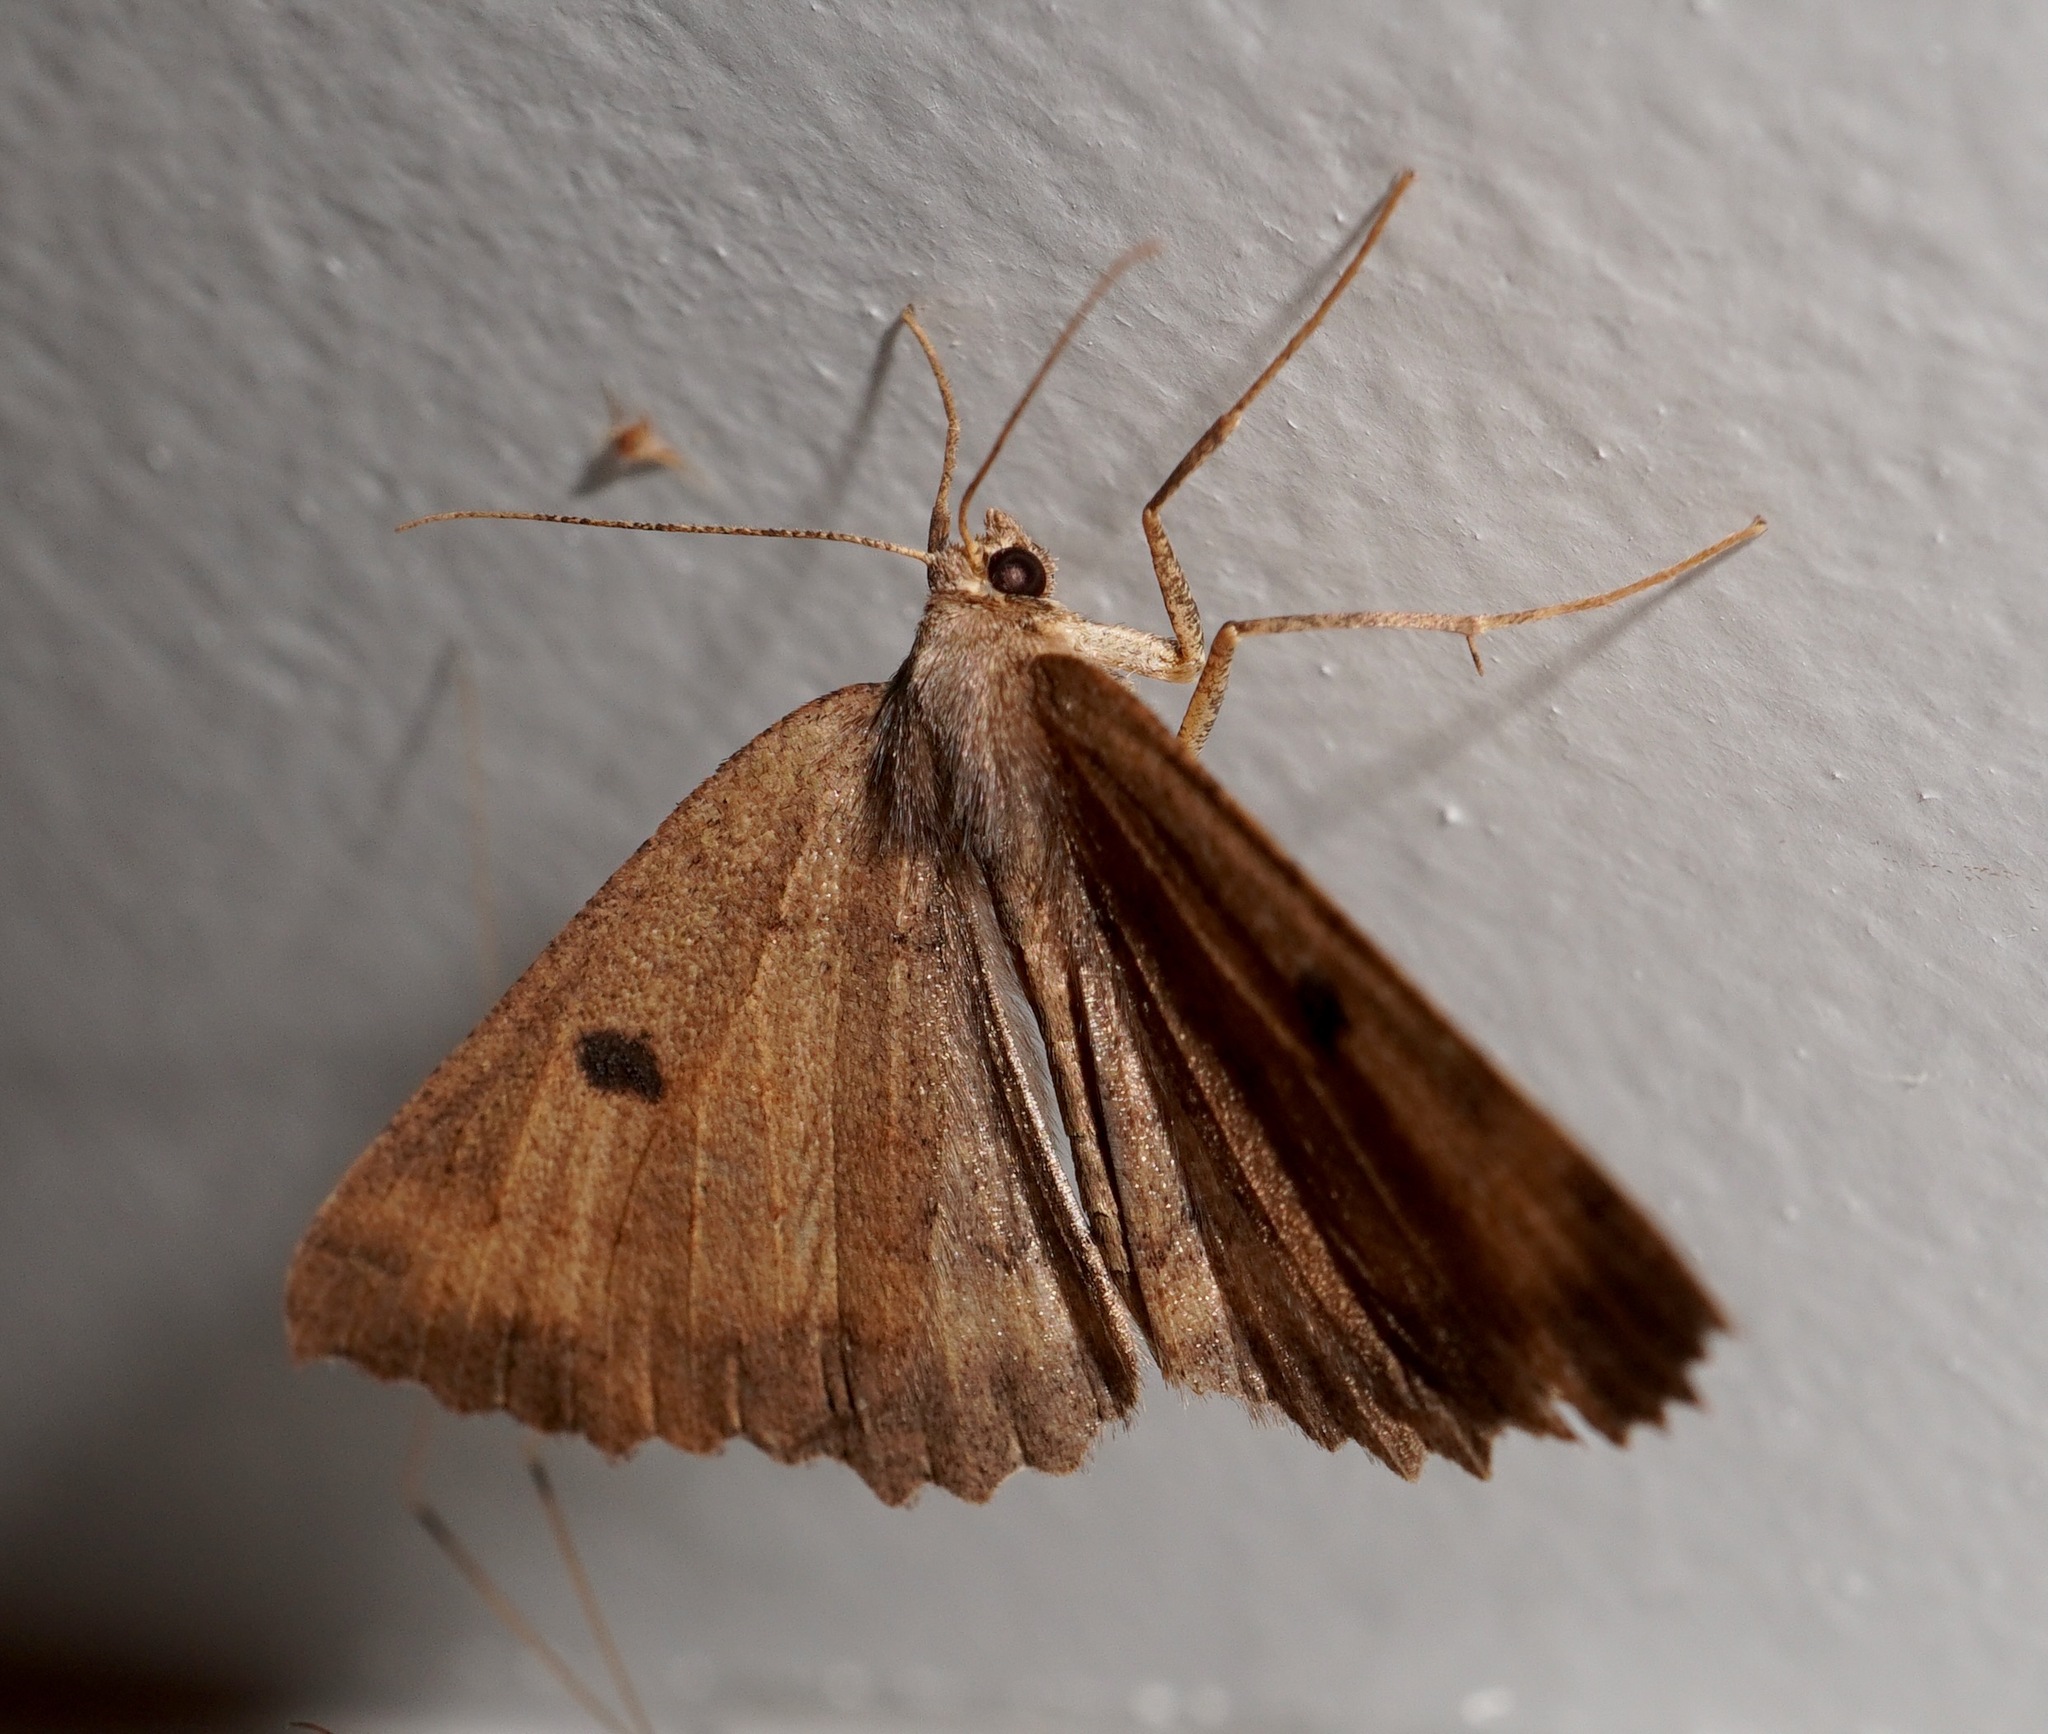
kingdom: Animalia
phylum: Arthropoda
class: Insecta
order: Lepidoptera
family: Geometridae
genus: Cleora
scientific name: Cleora scriptaria
